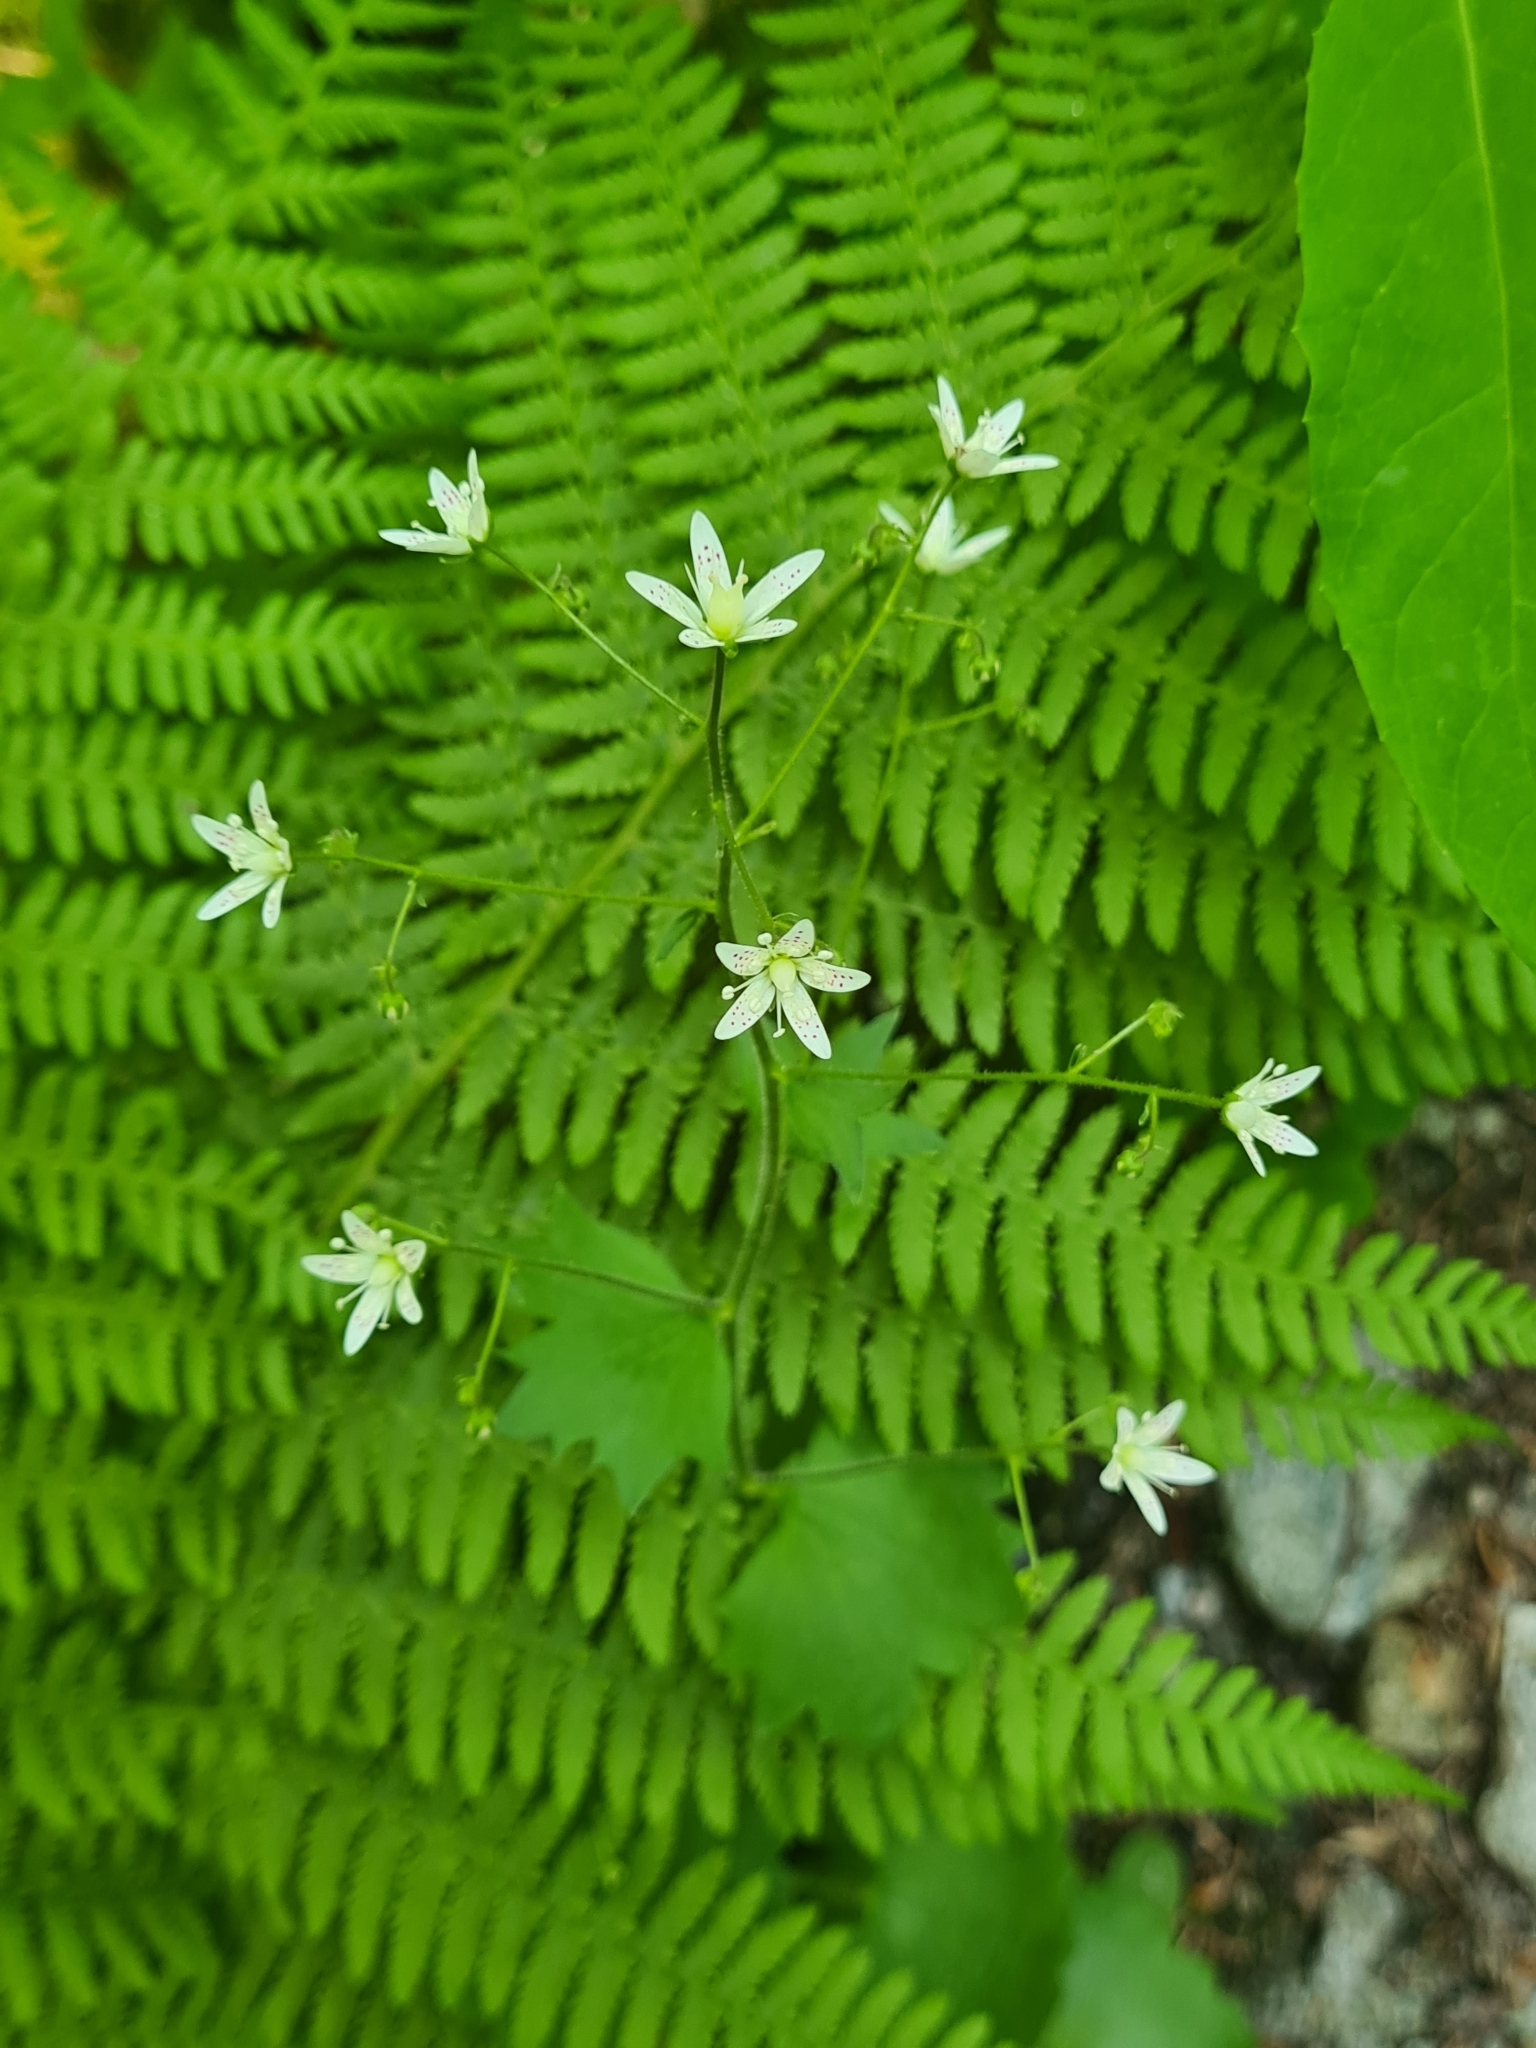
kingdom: Plantae
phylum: Tracheophyta
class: Magnoliopsida
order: Saxifragales
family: Saxifragaceae
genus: Saxifraga
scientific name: Saxifraga rotundifolia
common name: Round-leaved saxifrage
